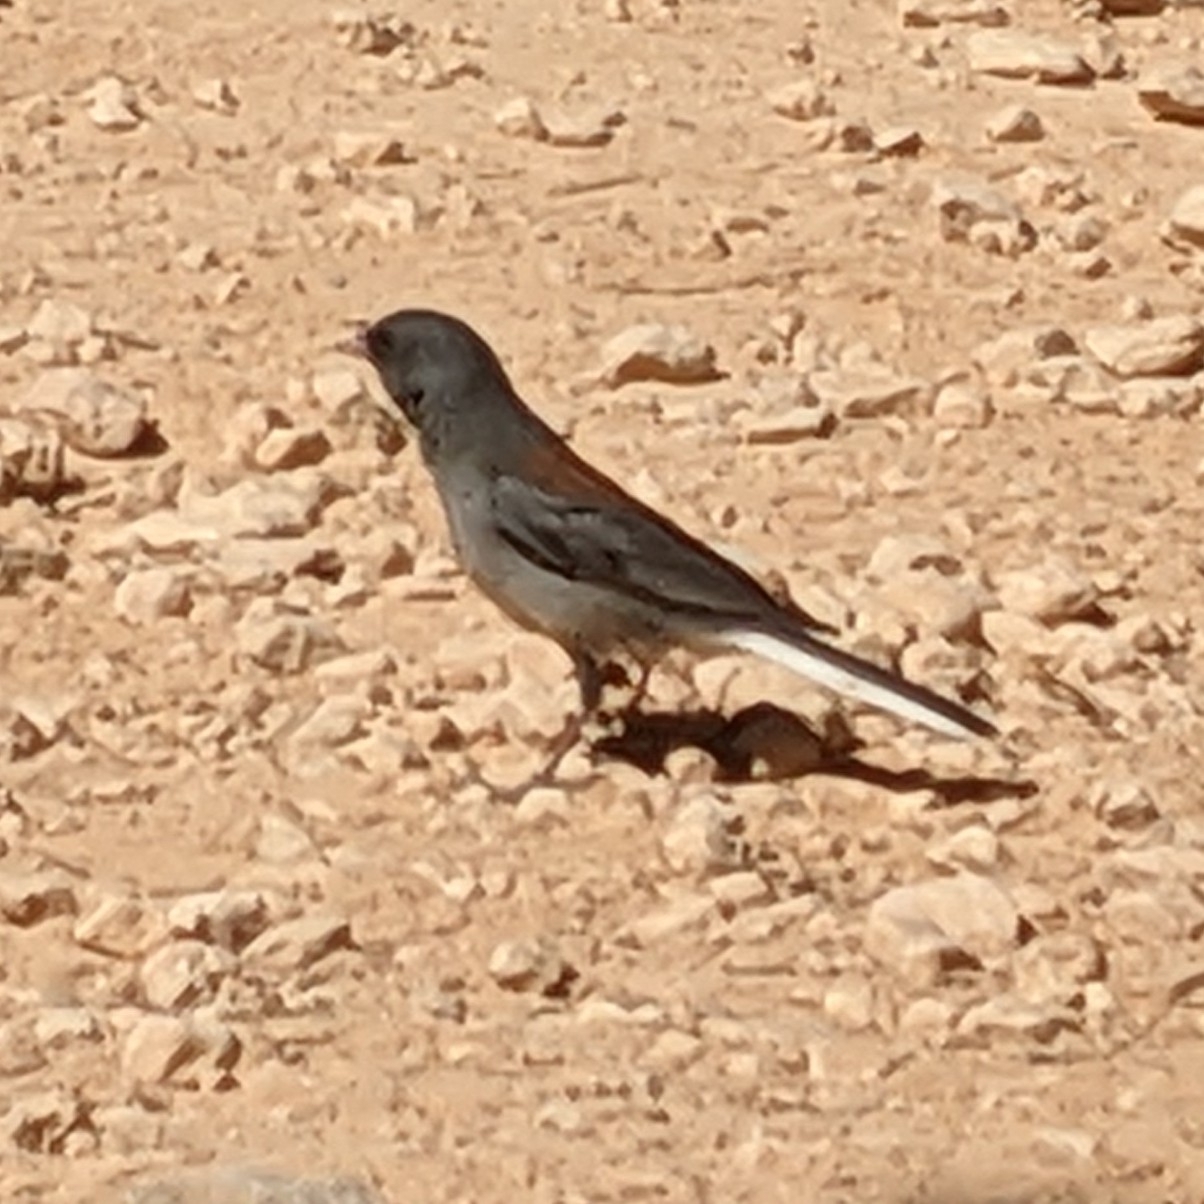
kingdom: Animalia
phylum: Chordata
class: Aves
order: Passeriformes
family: Passerellidae
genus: Junco
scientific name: Junco hyemalis
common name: Dark-eyed junco
